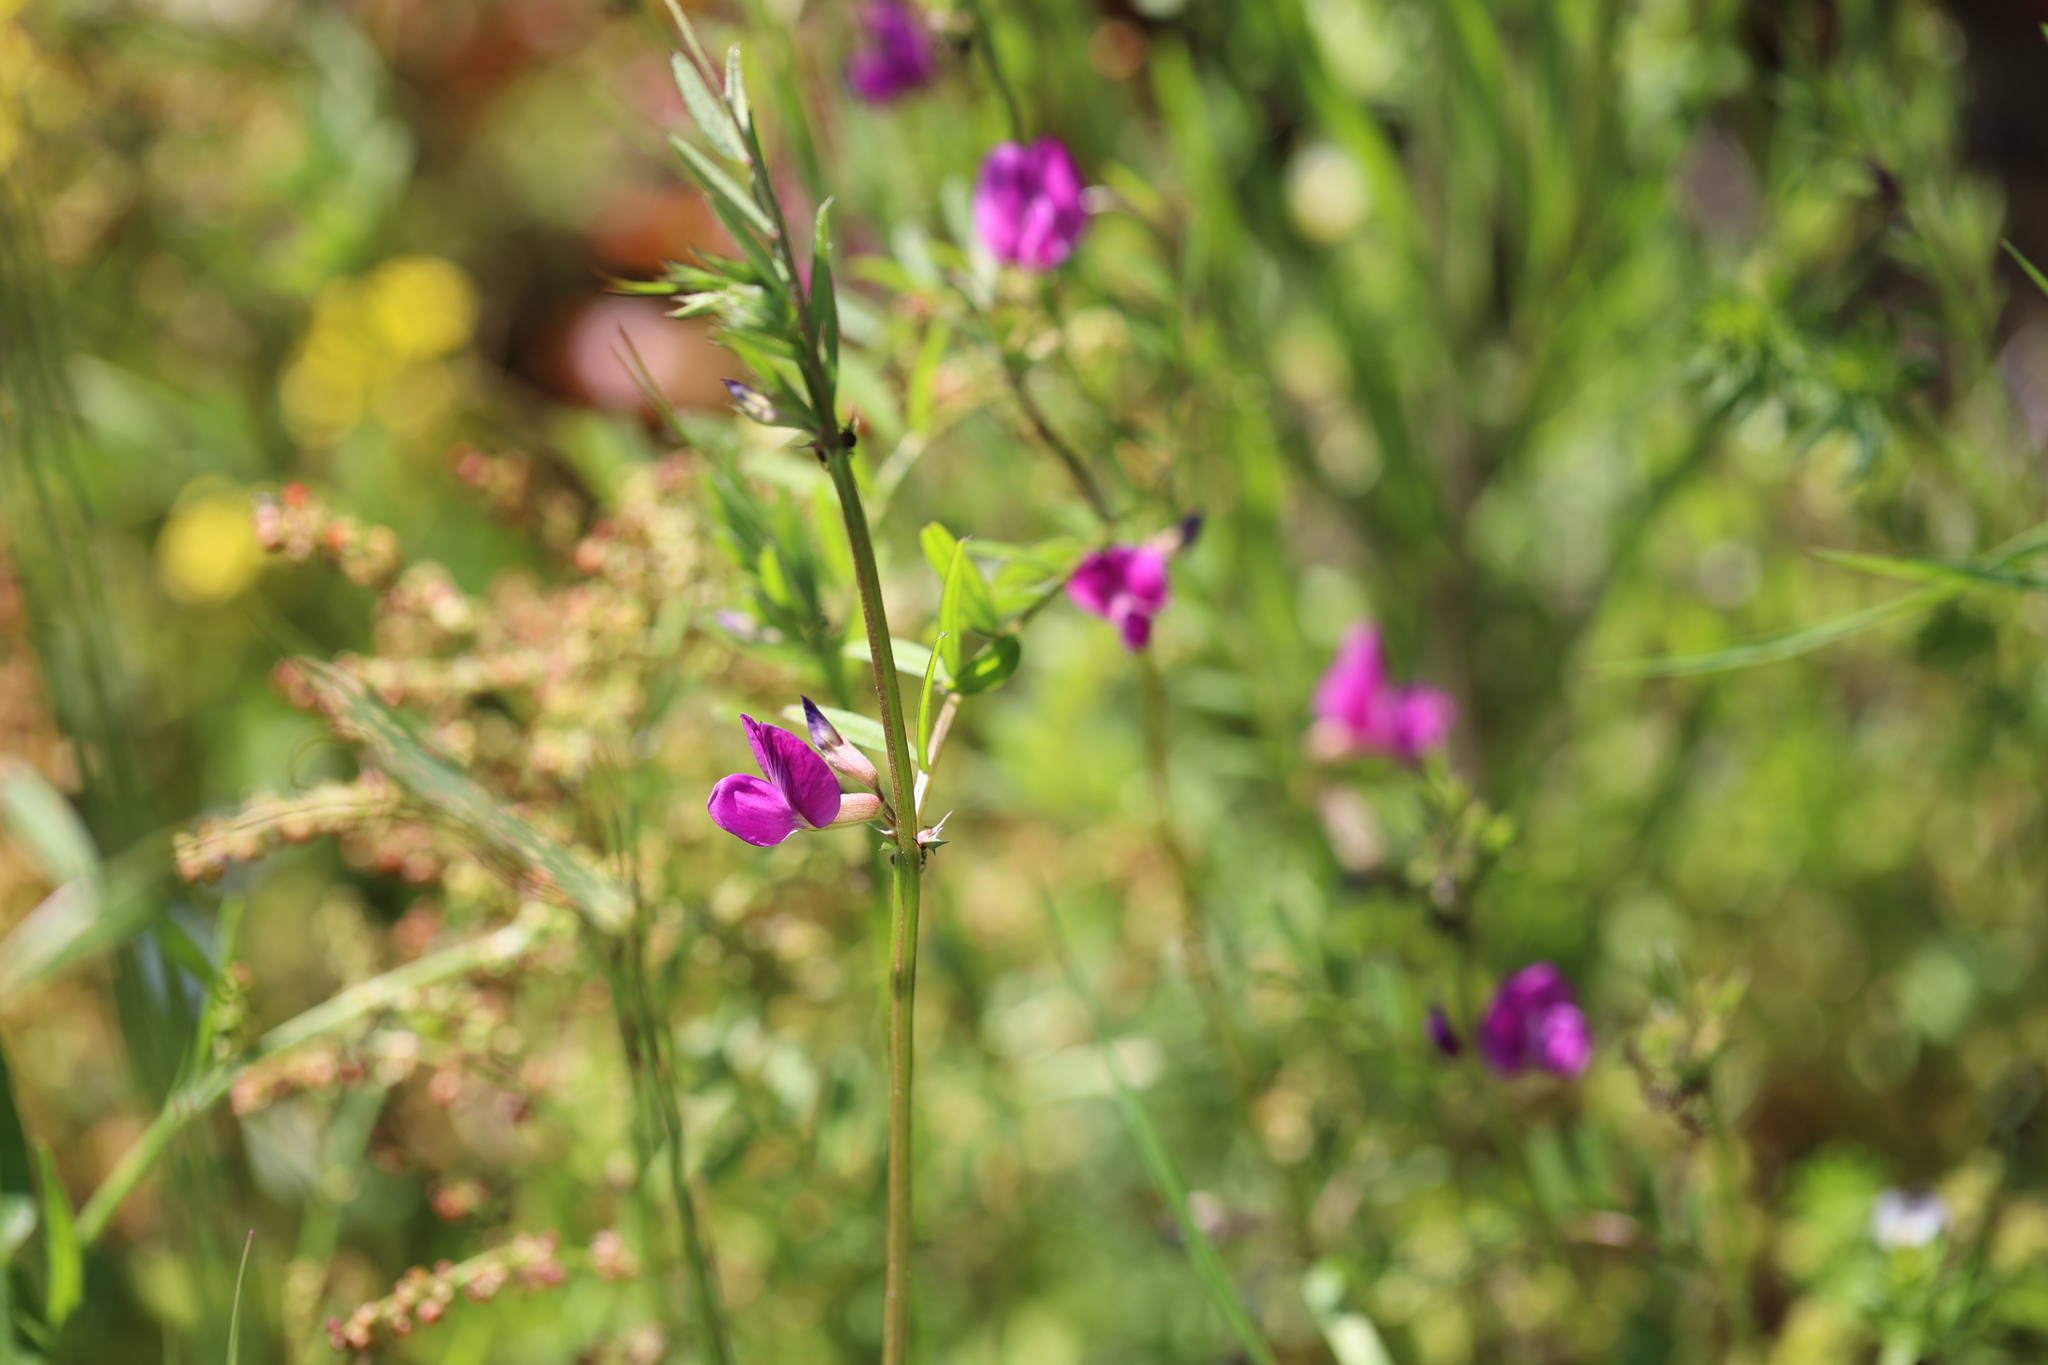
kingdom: Plantae
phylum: Tracheophyta
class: Magnoliopsida
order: Fabales
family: Fabaceae
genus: Vicia
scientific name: Vicia sativa
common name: Garden vetch
